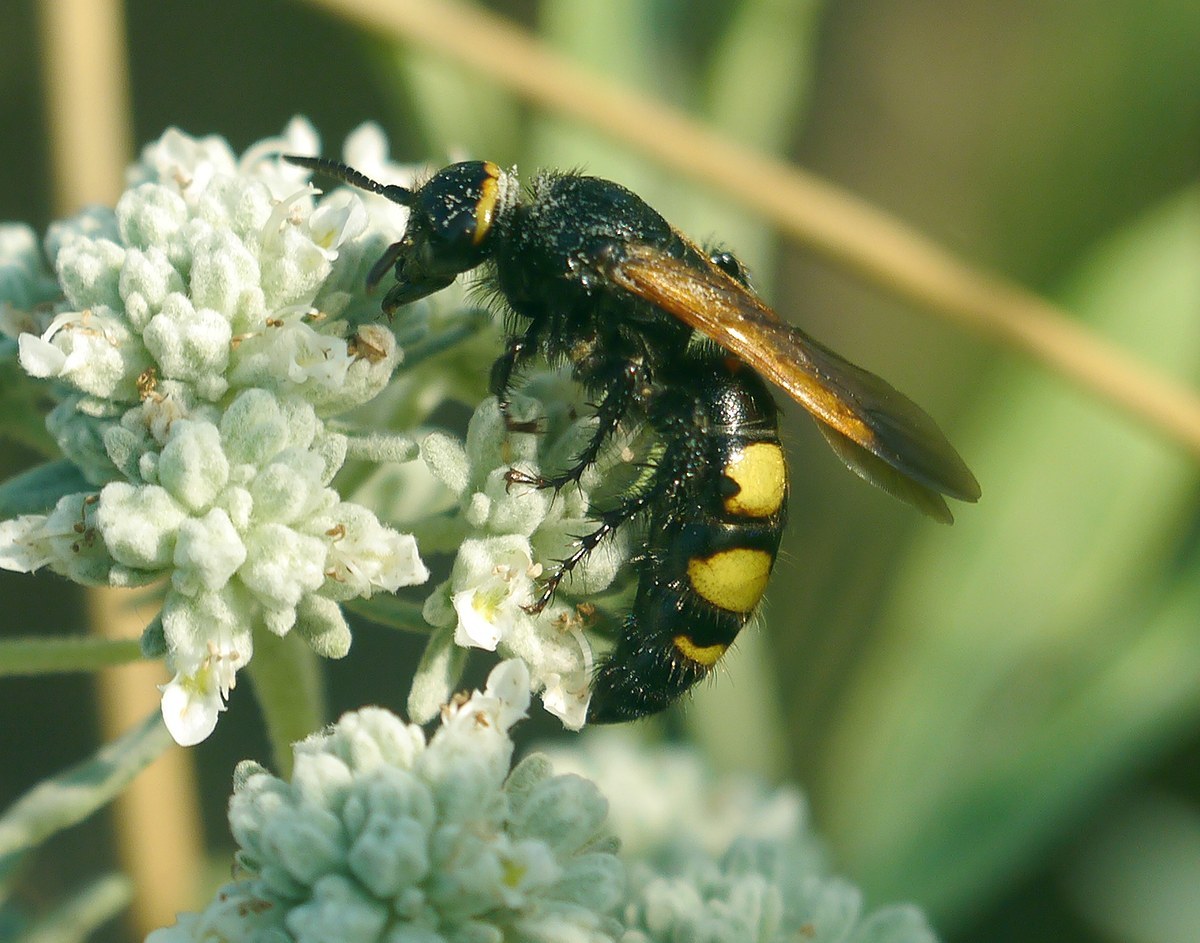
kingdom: Animalia
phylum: Arthropoda
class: Insecta
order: Hymenoptera
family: Scoliidae
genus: Scolia
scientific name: Scolia fuciformis
